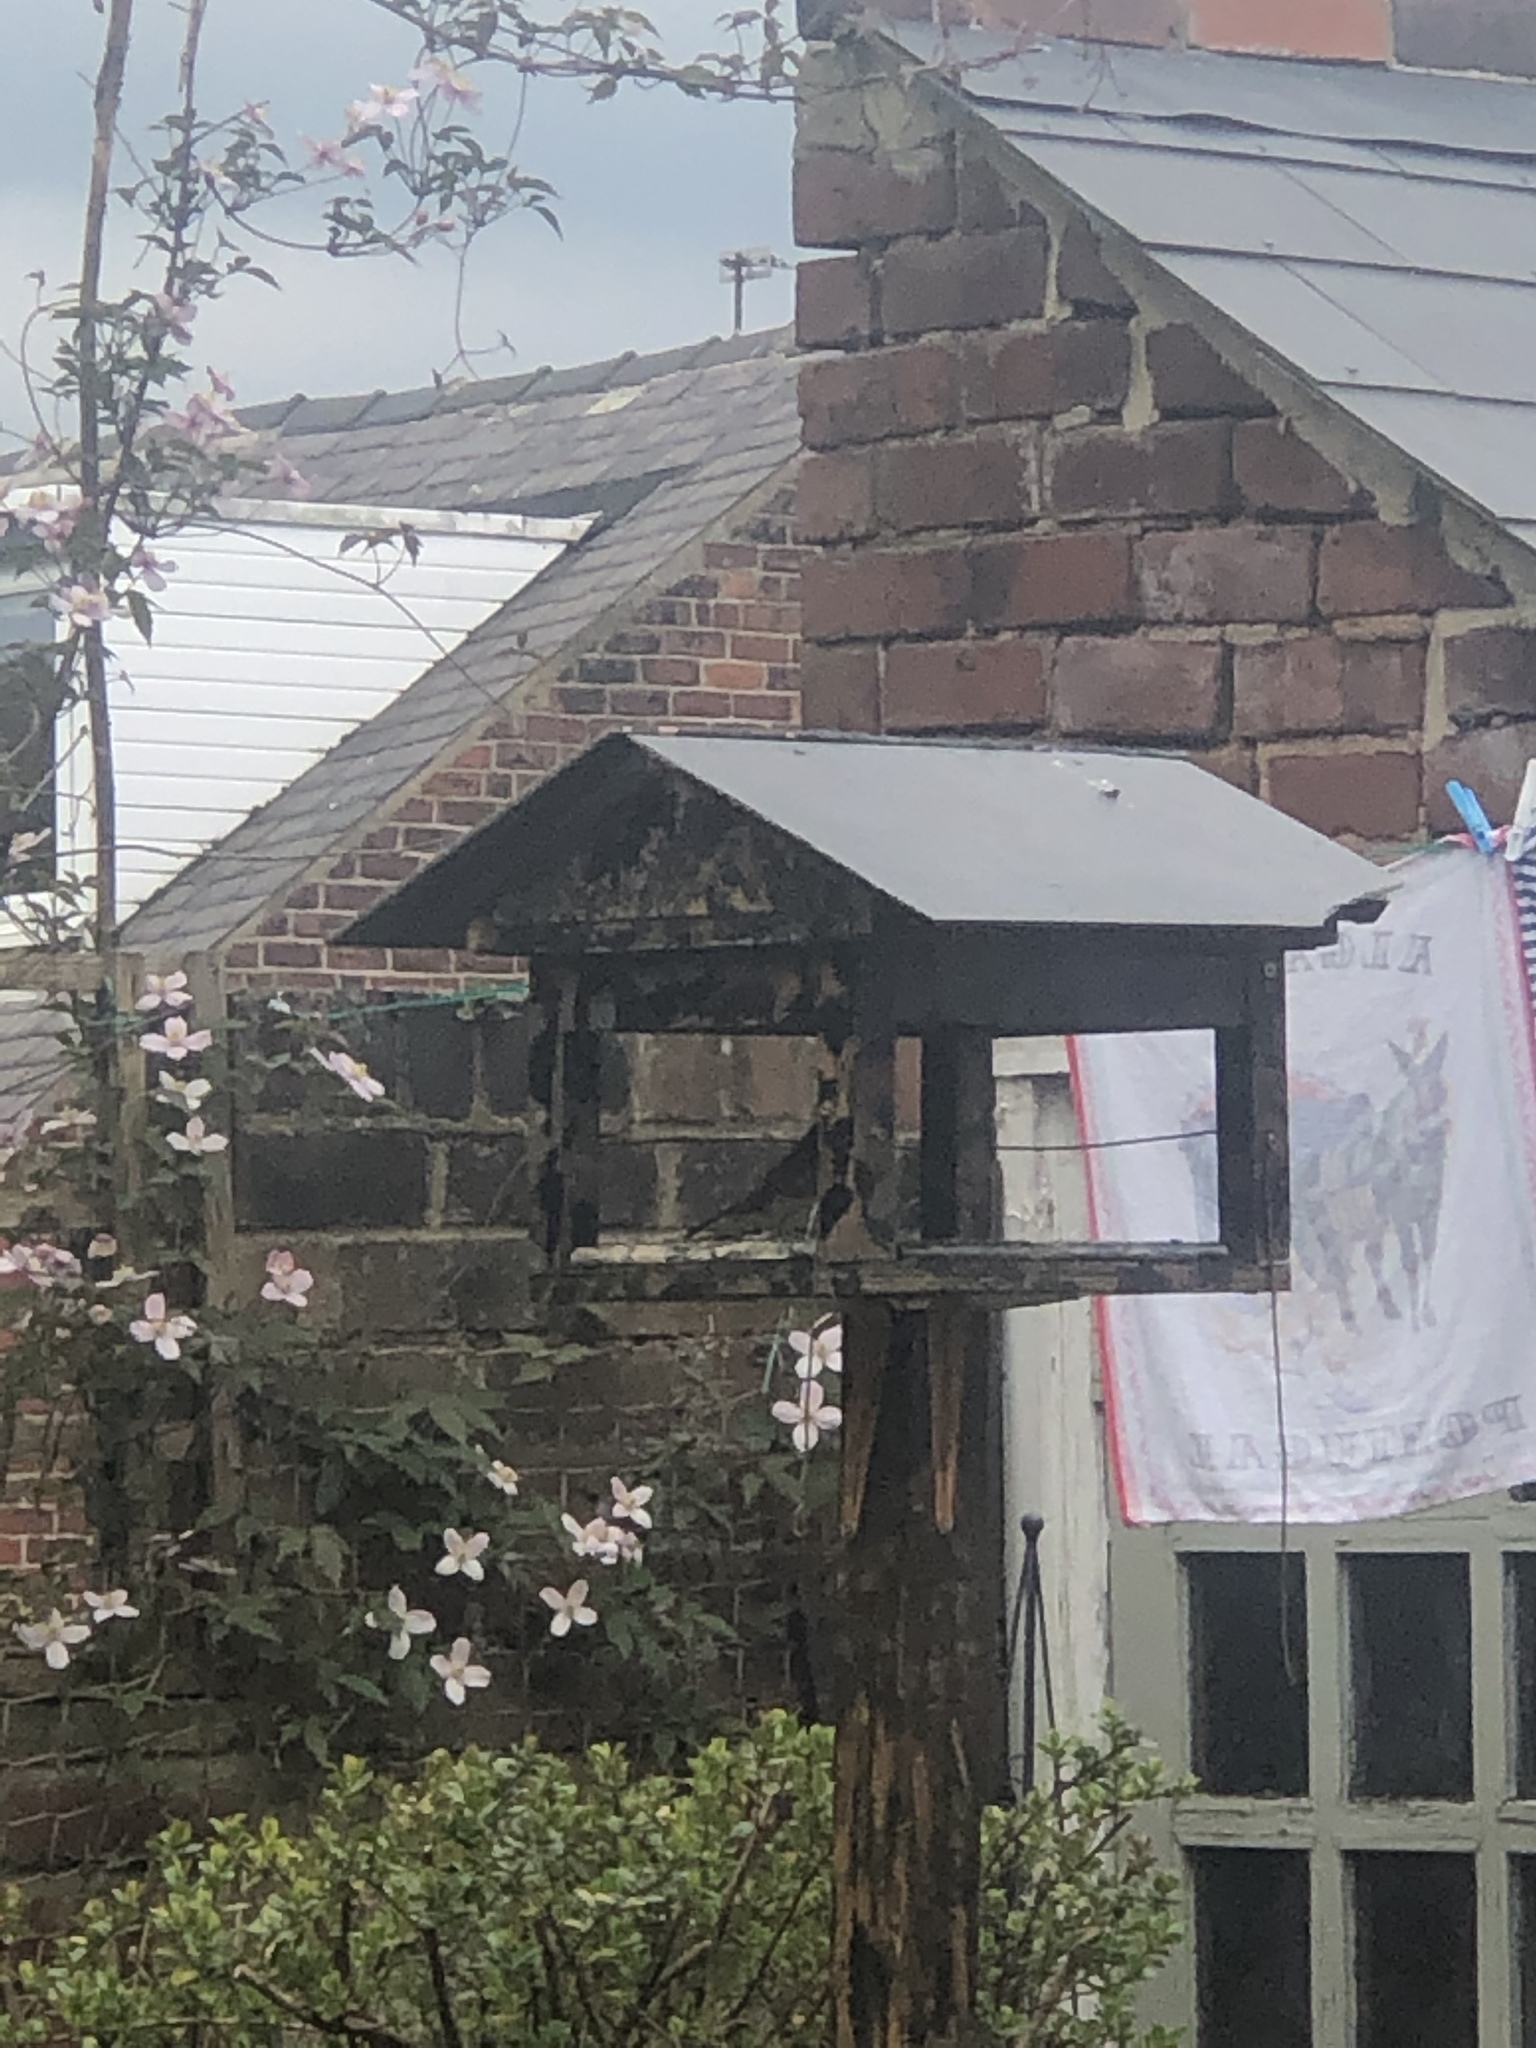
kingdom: Animalia
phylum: Chordata
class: Aves
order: Passeriformes
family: Muscicapidae
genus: Erithacus
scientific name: Erithacus rubecula
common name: European robin
